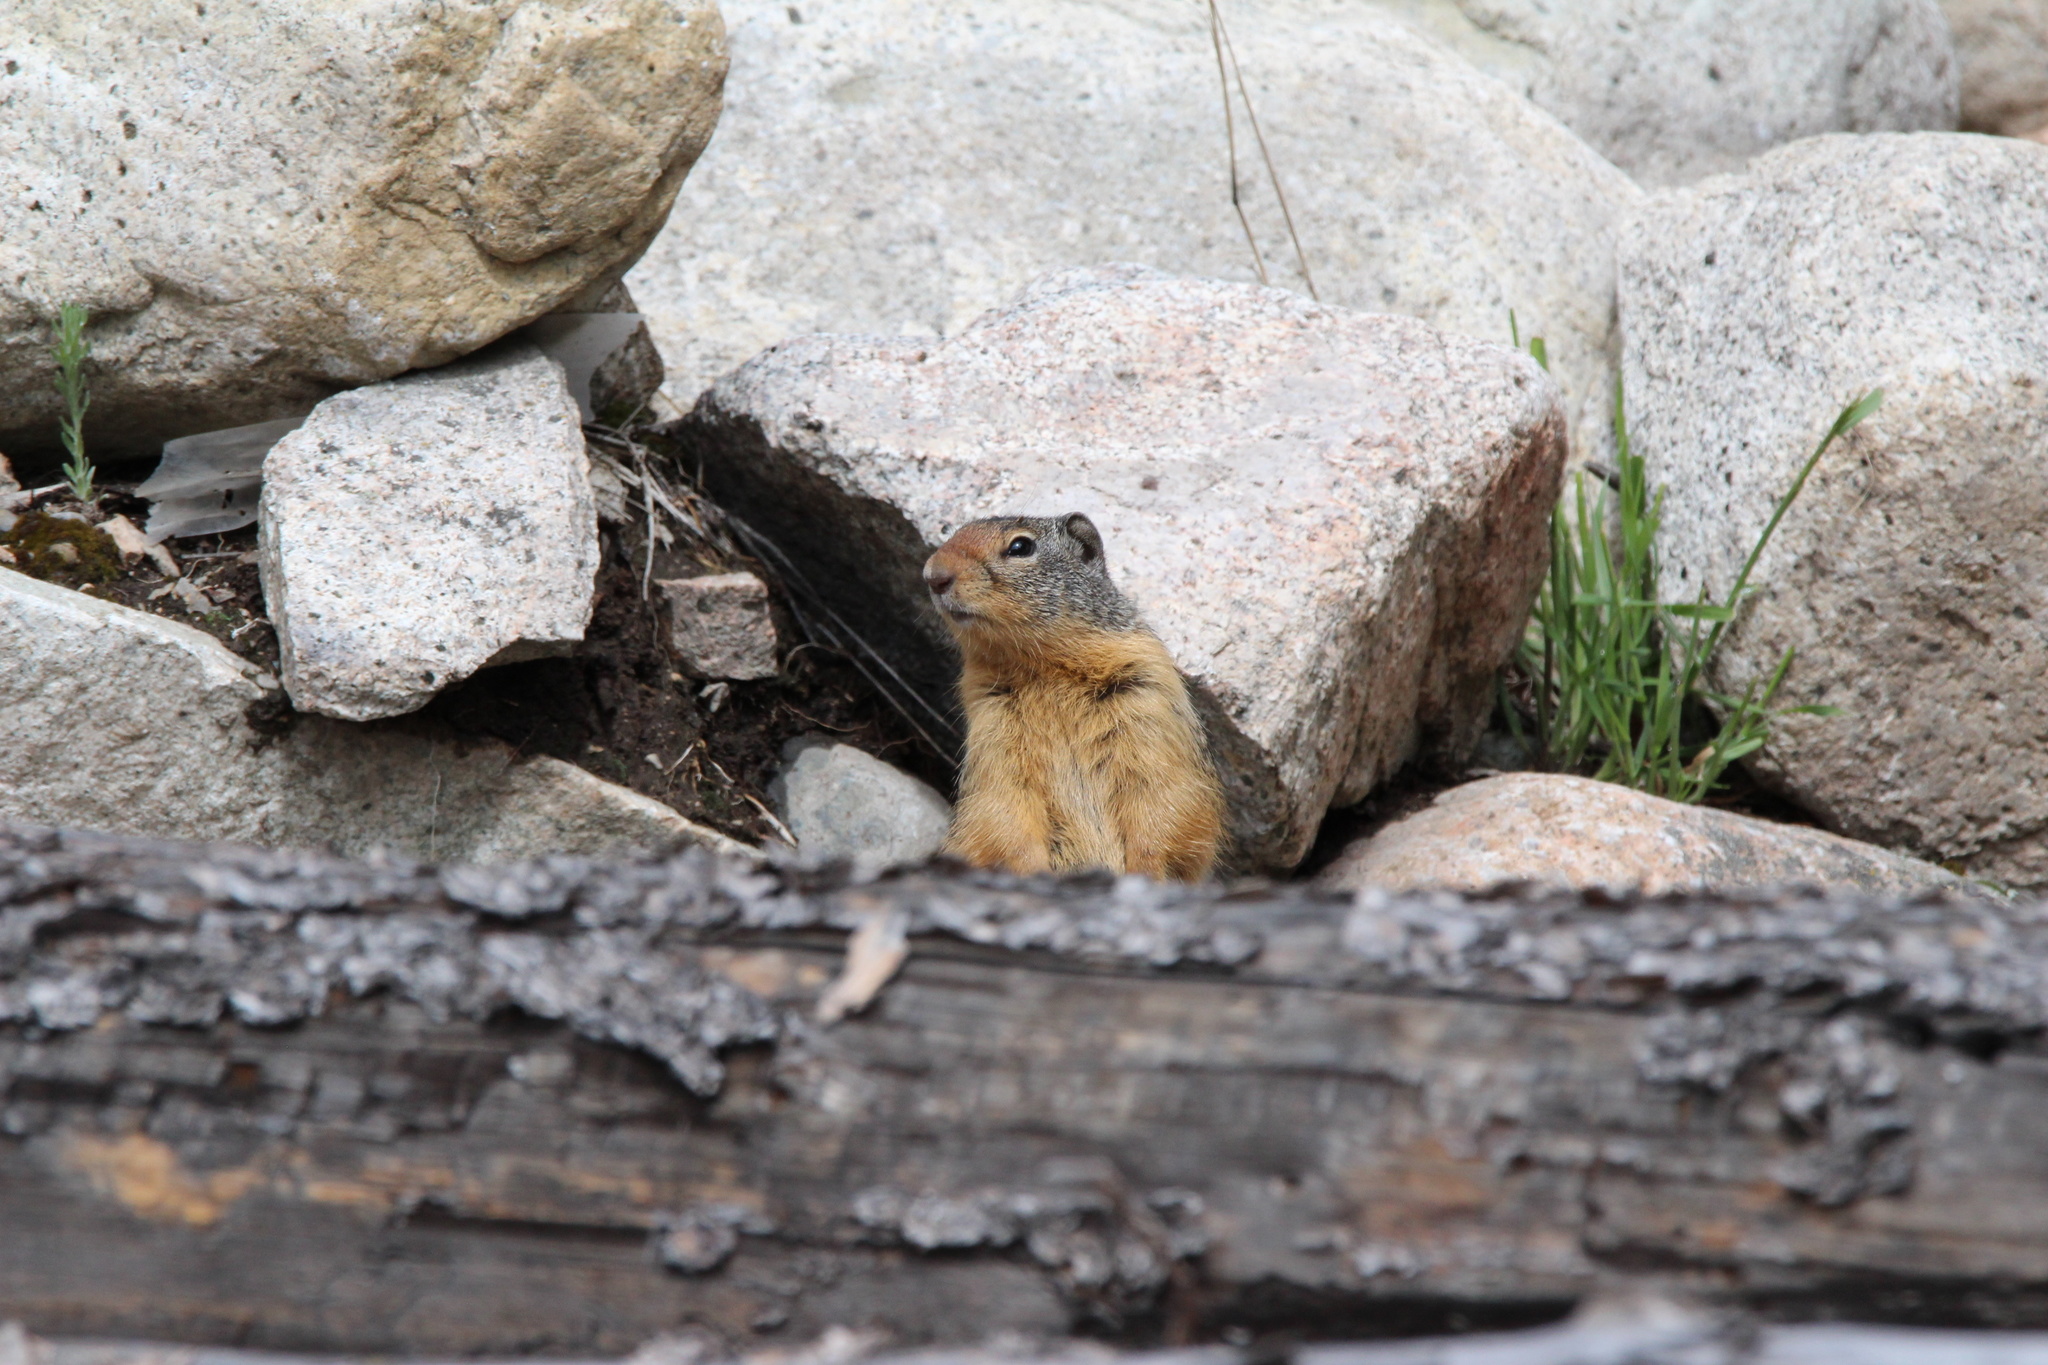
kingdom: Animalia
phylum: Chordata
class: Mammalia
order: Rodentia
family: Sciuridae
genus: Urocitellus
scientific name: Urocitellus columbianus
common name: Columbian ground squirrel
